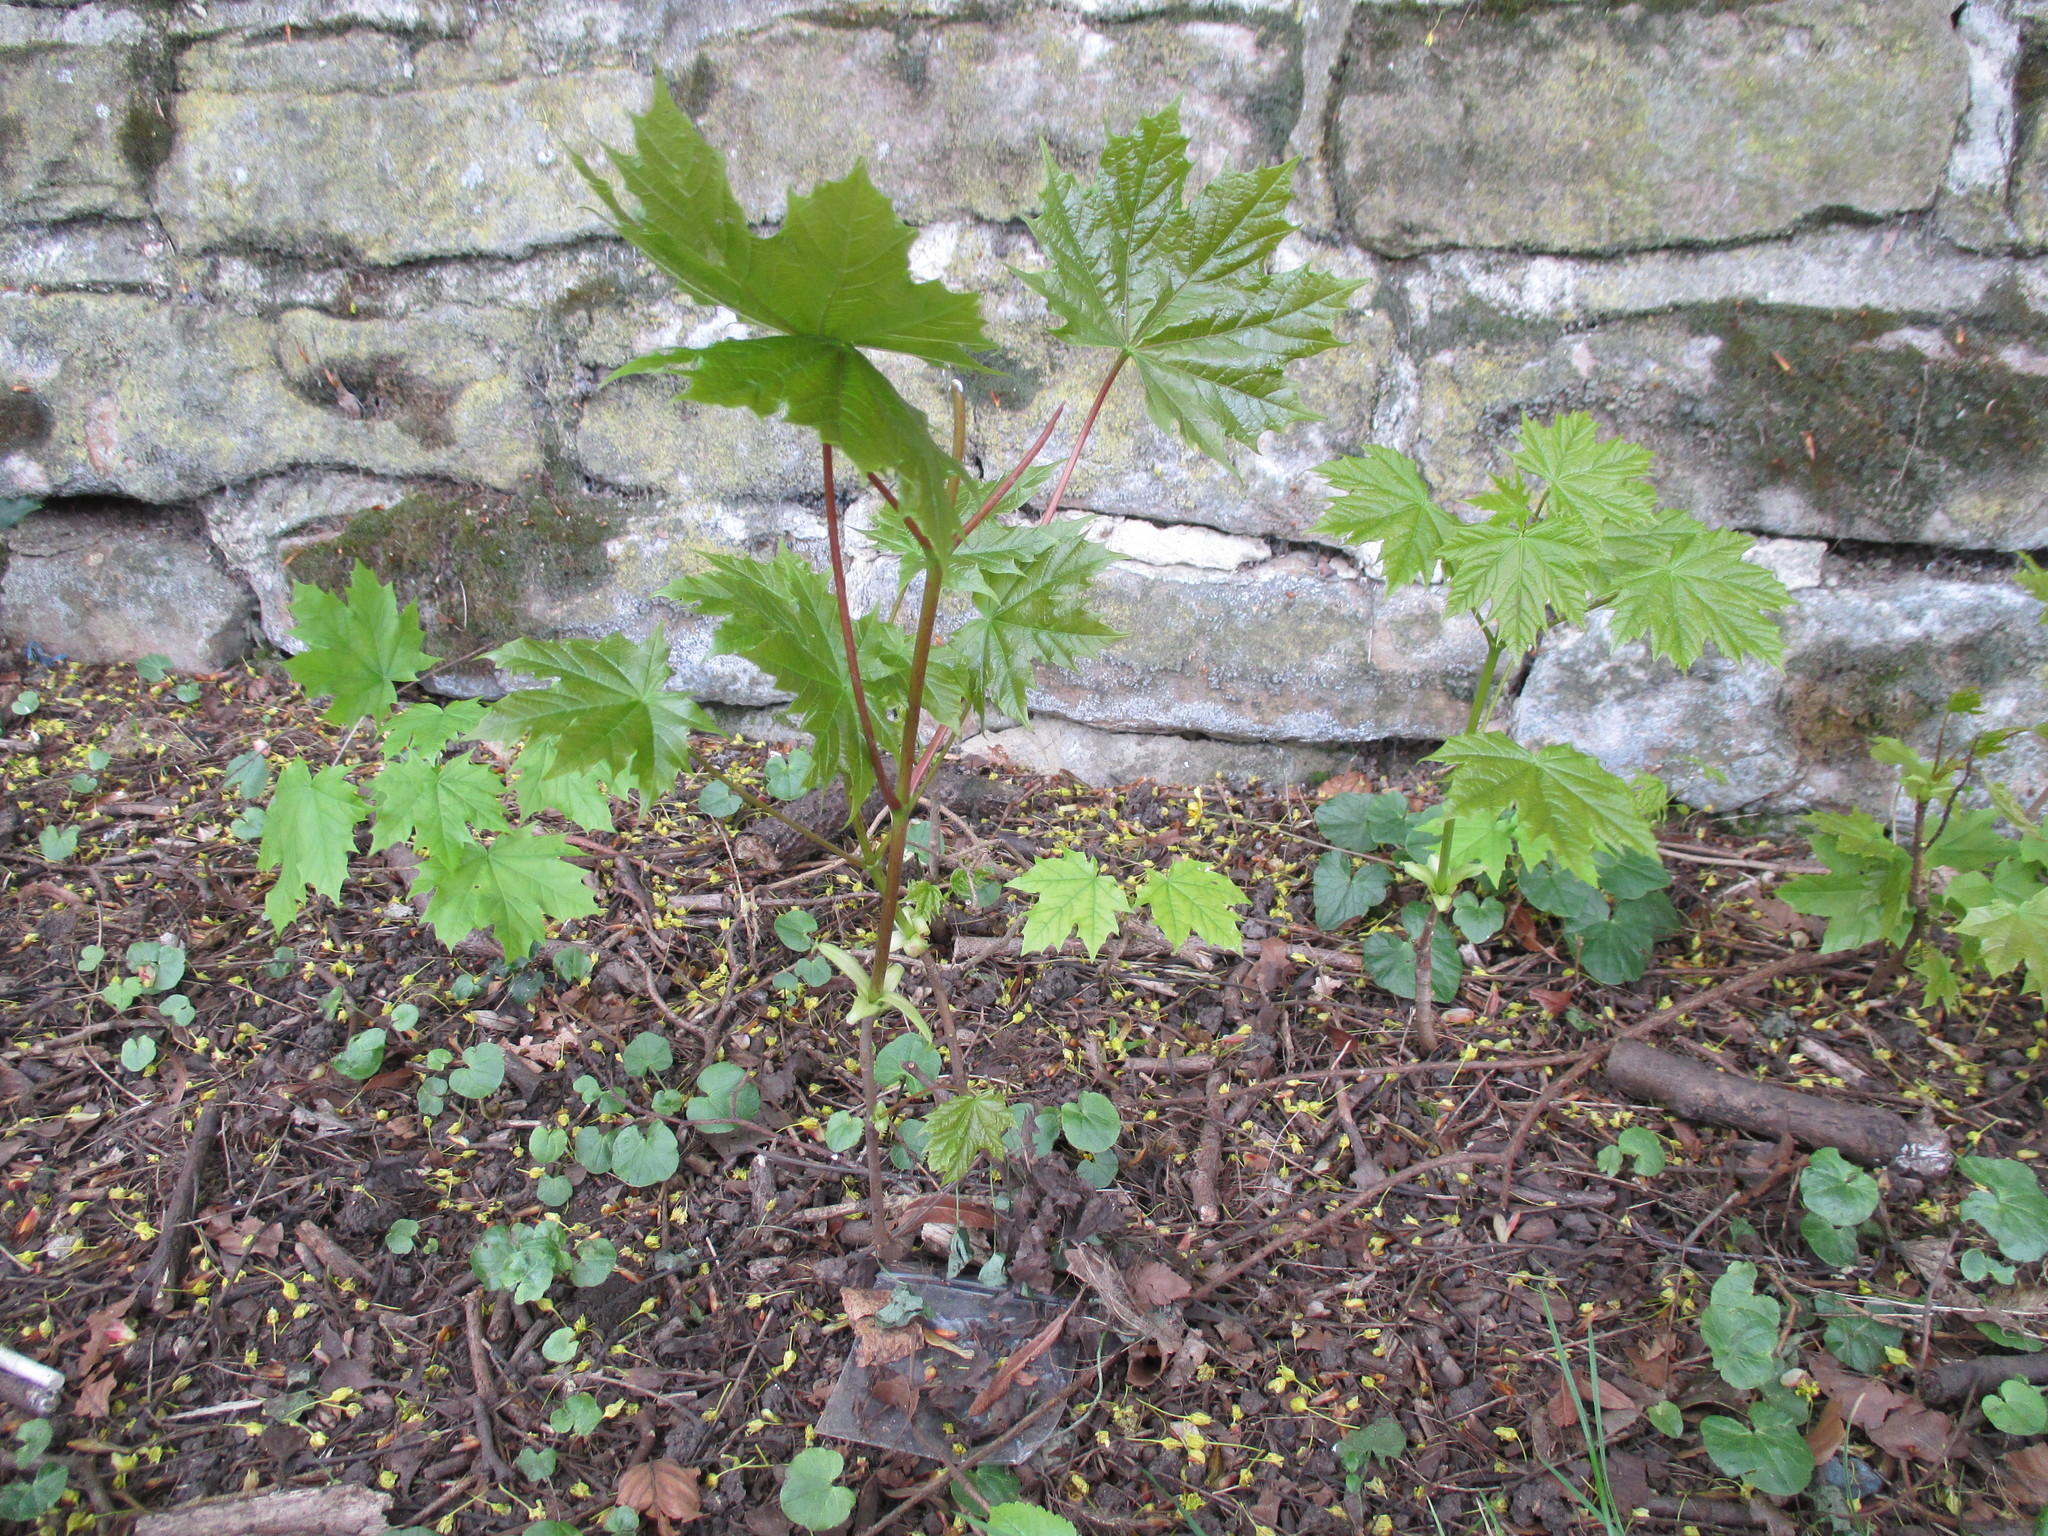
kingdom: Plantae
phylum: Tracheophyta
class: Magnoliopsida
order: Sapindales
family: Sapindaceae
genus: Acer
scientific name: Acer platanoides
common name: Norway maple
